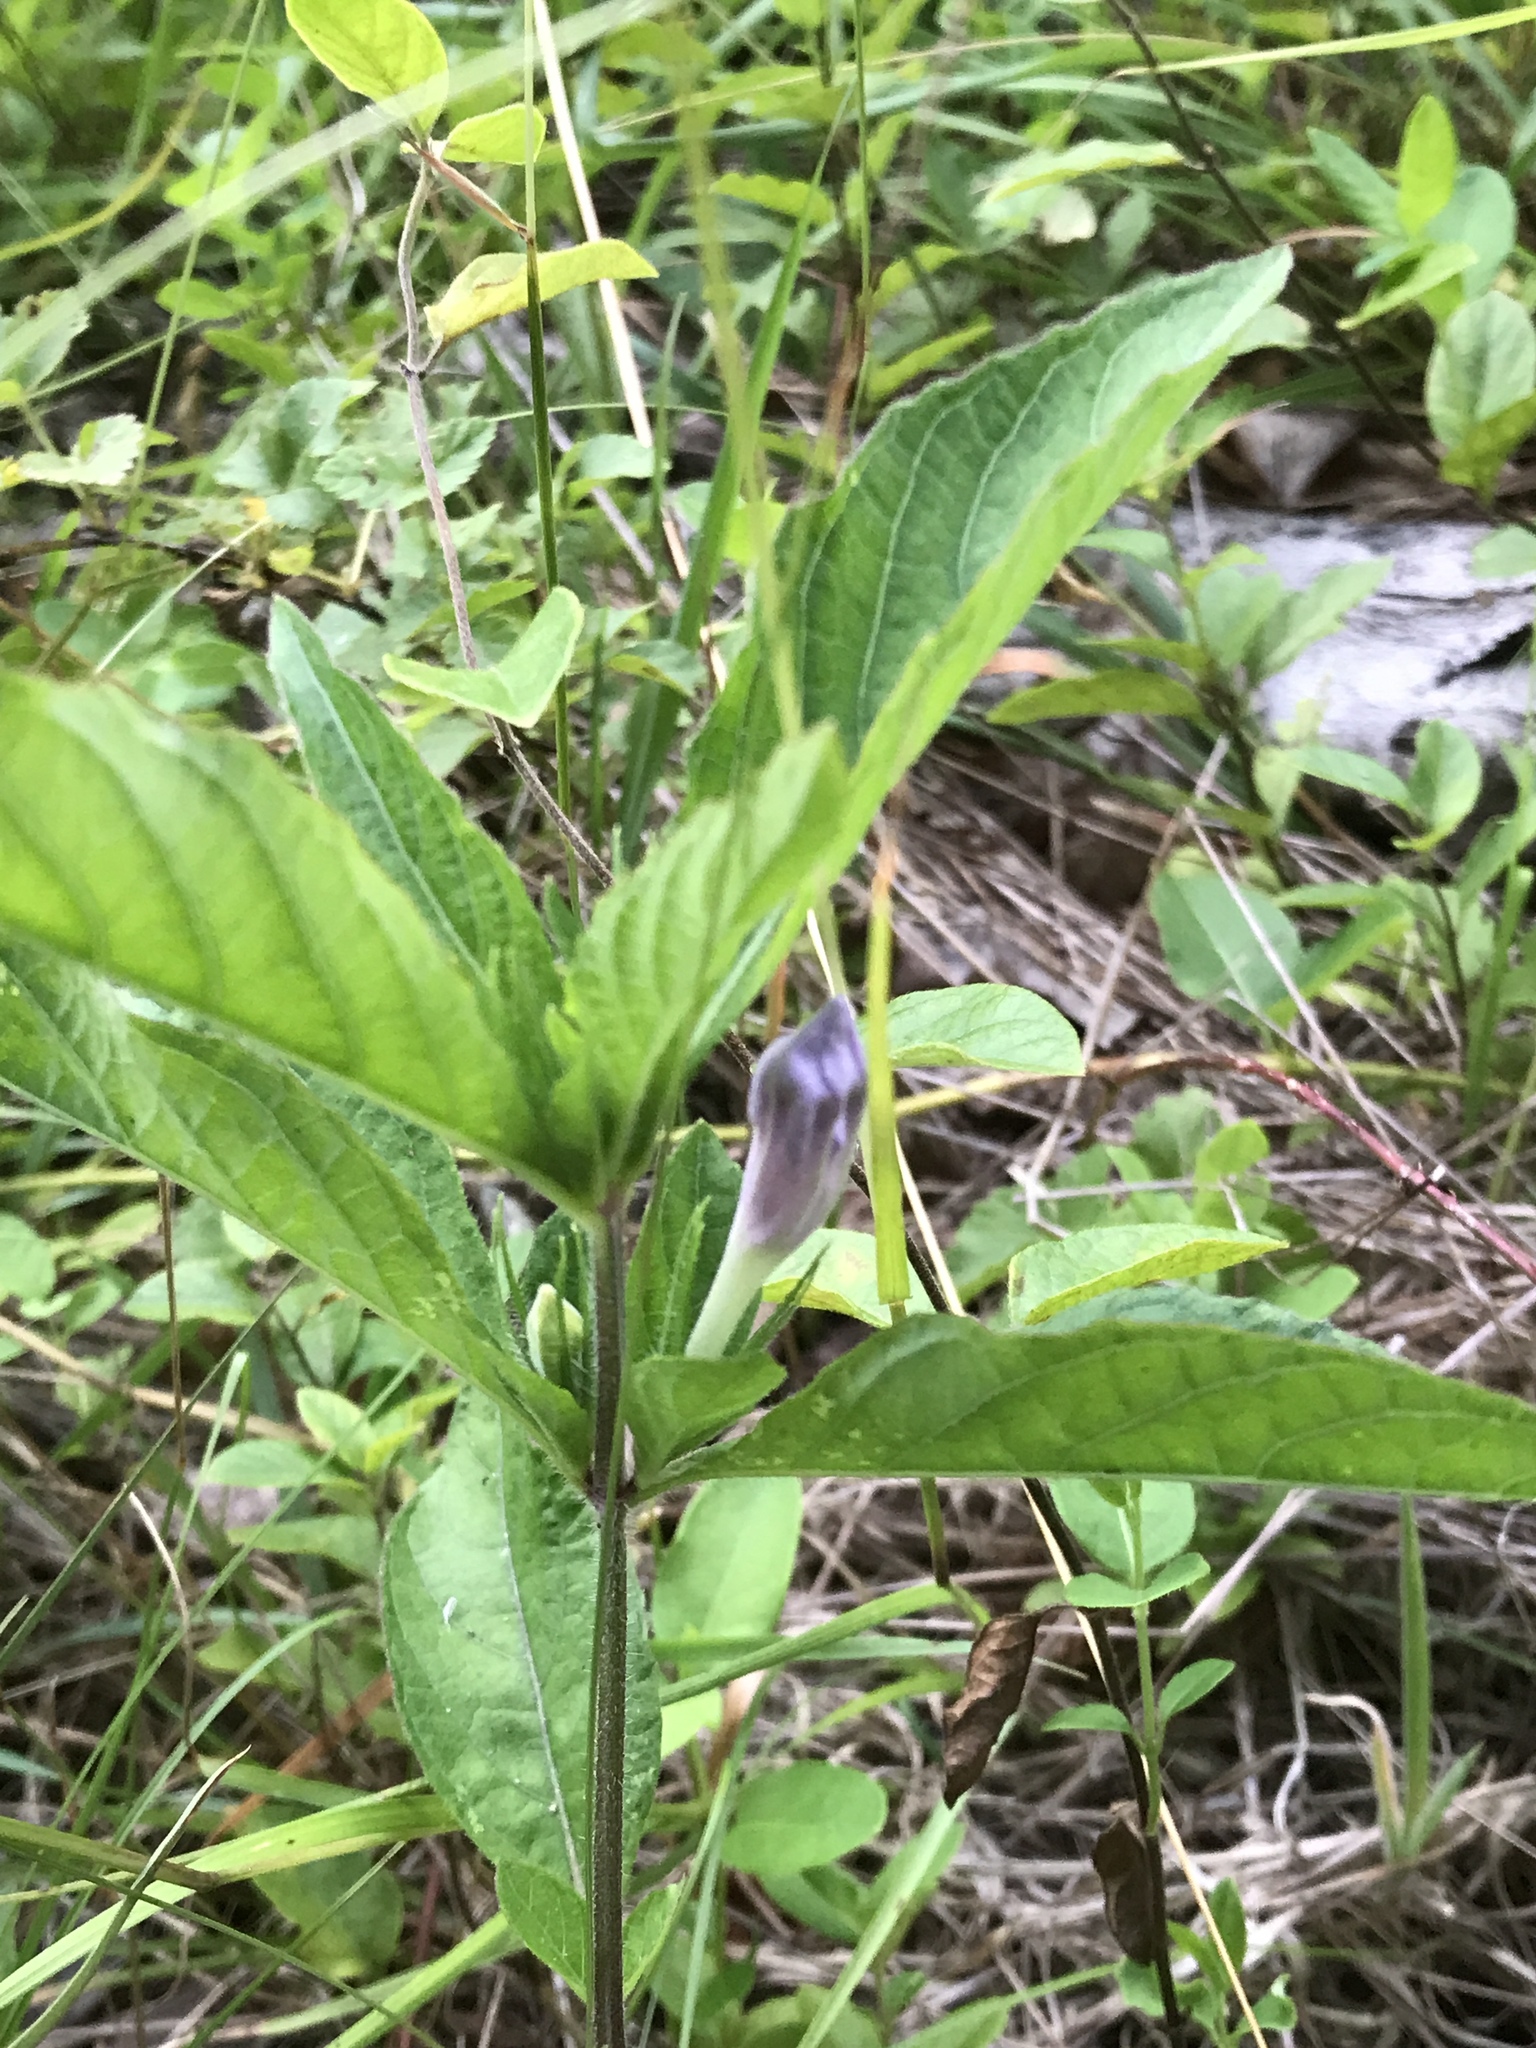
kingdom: Plantae
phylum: Tracheophyta
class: Magnoliopsida
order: Lamiales
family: Acanthaceae
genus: Ruellia
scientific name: Ruellia caroliniensis
